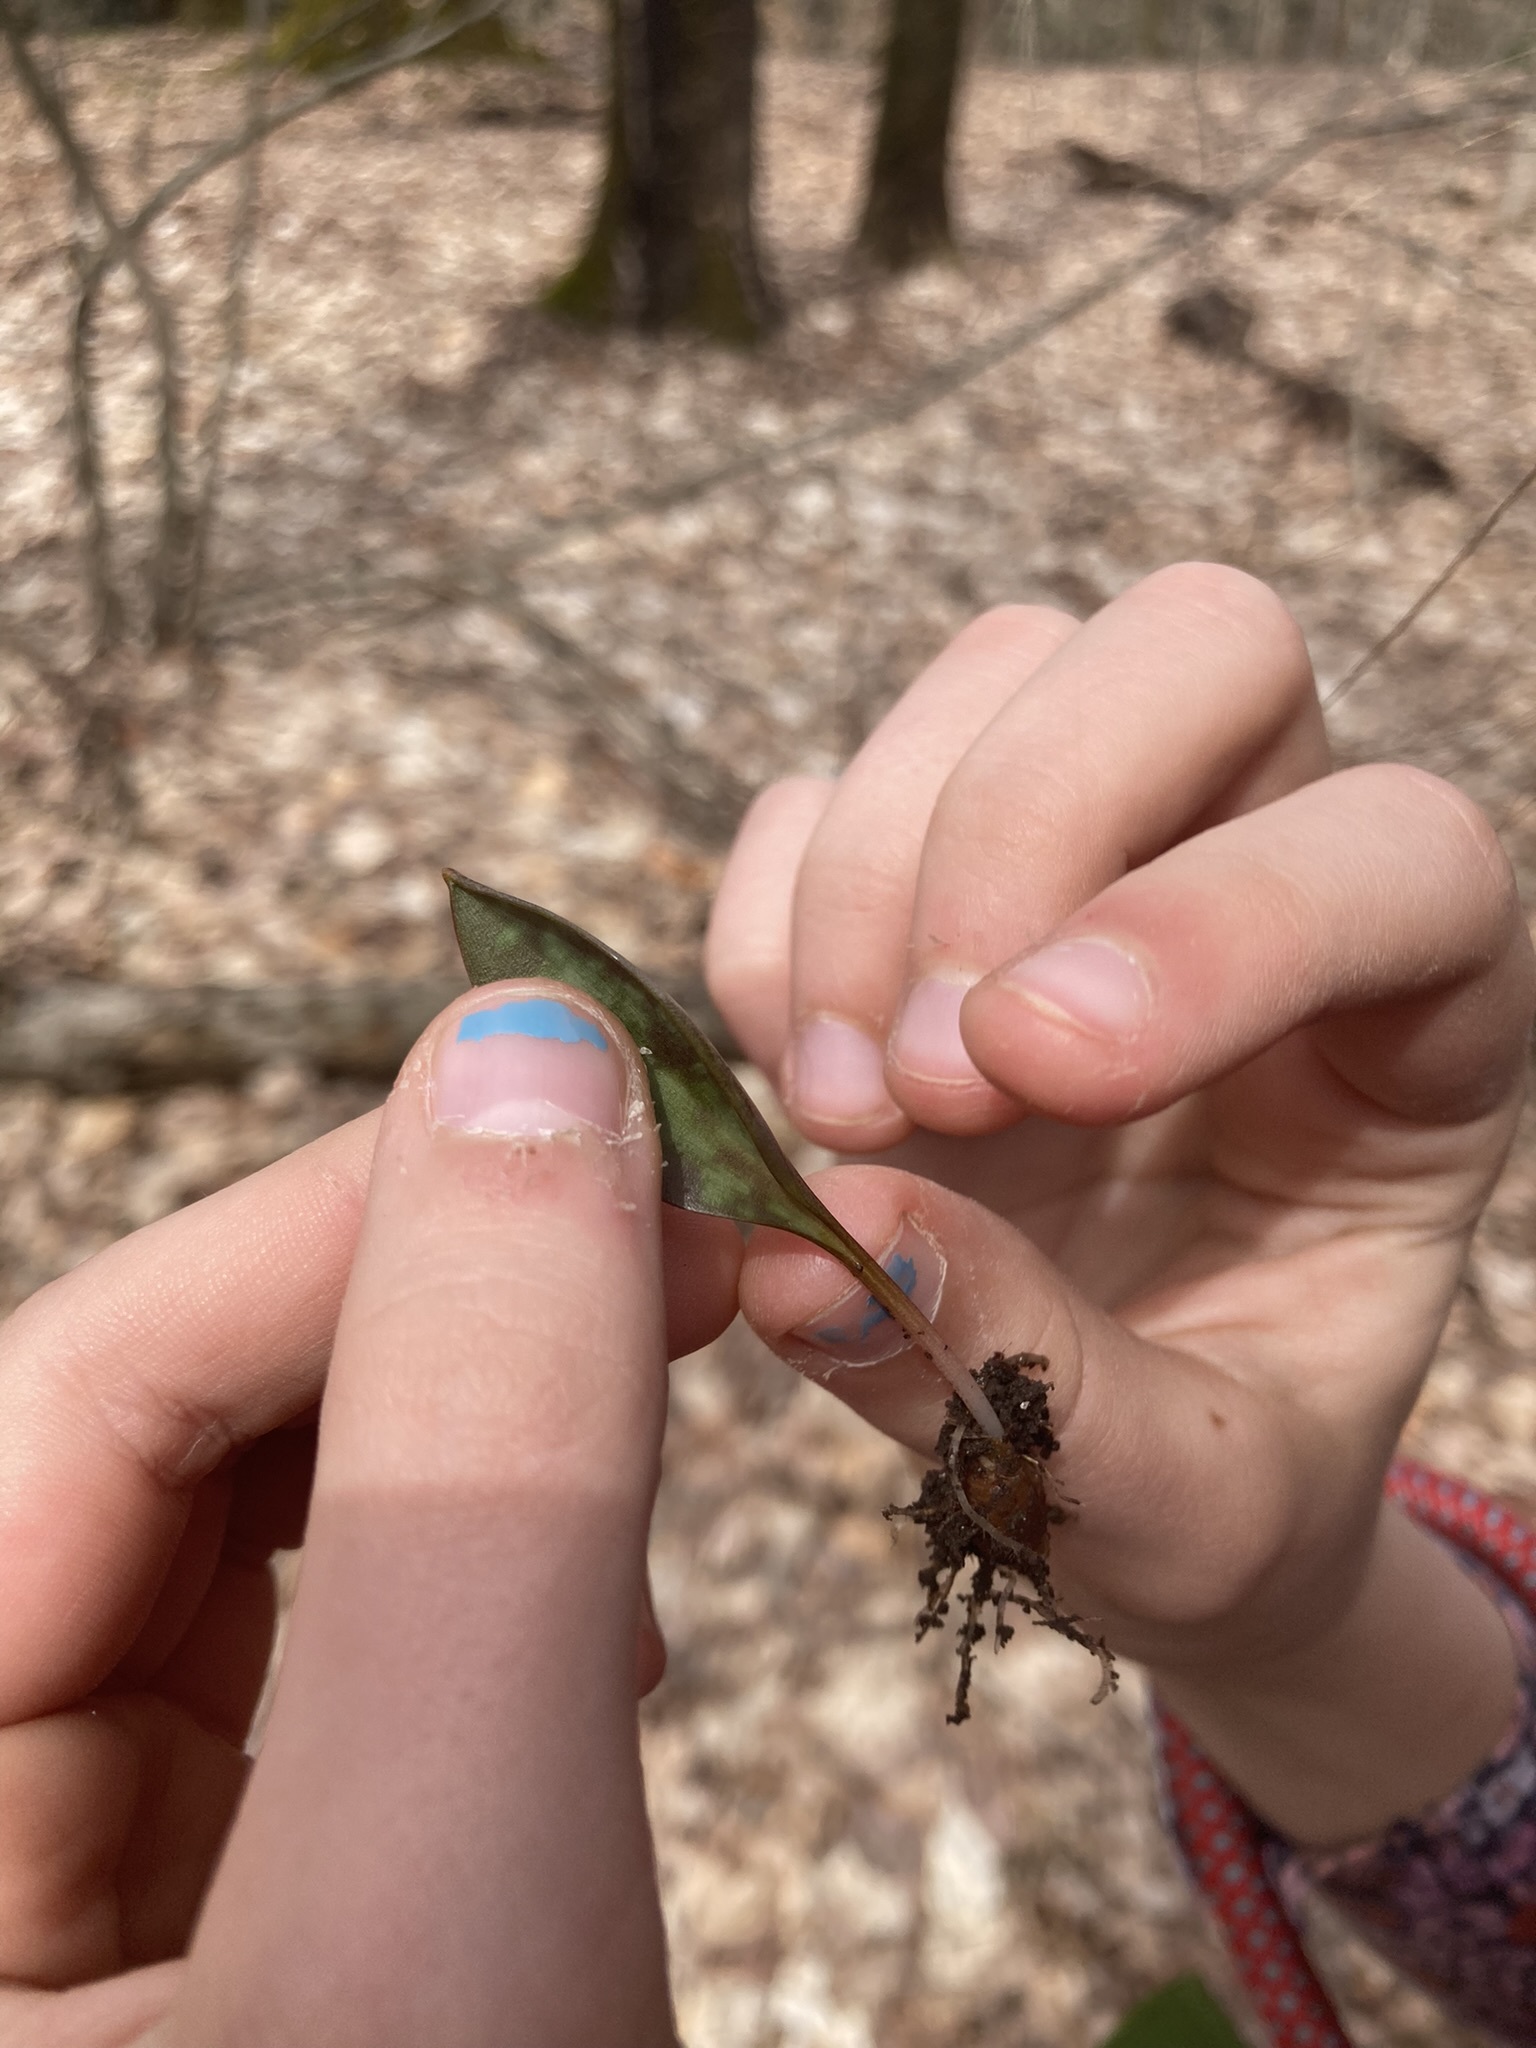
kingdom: Plantae
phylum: Tracheophyta
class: Liliopsida
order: Liliales
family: Liliaceae
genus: Erythronium
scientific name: Erythronium
